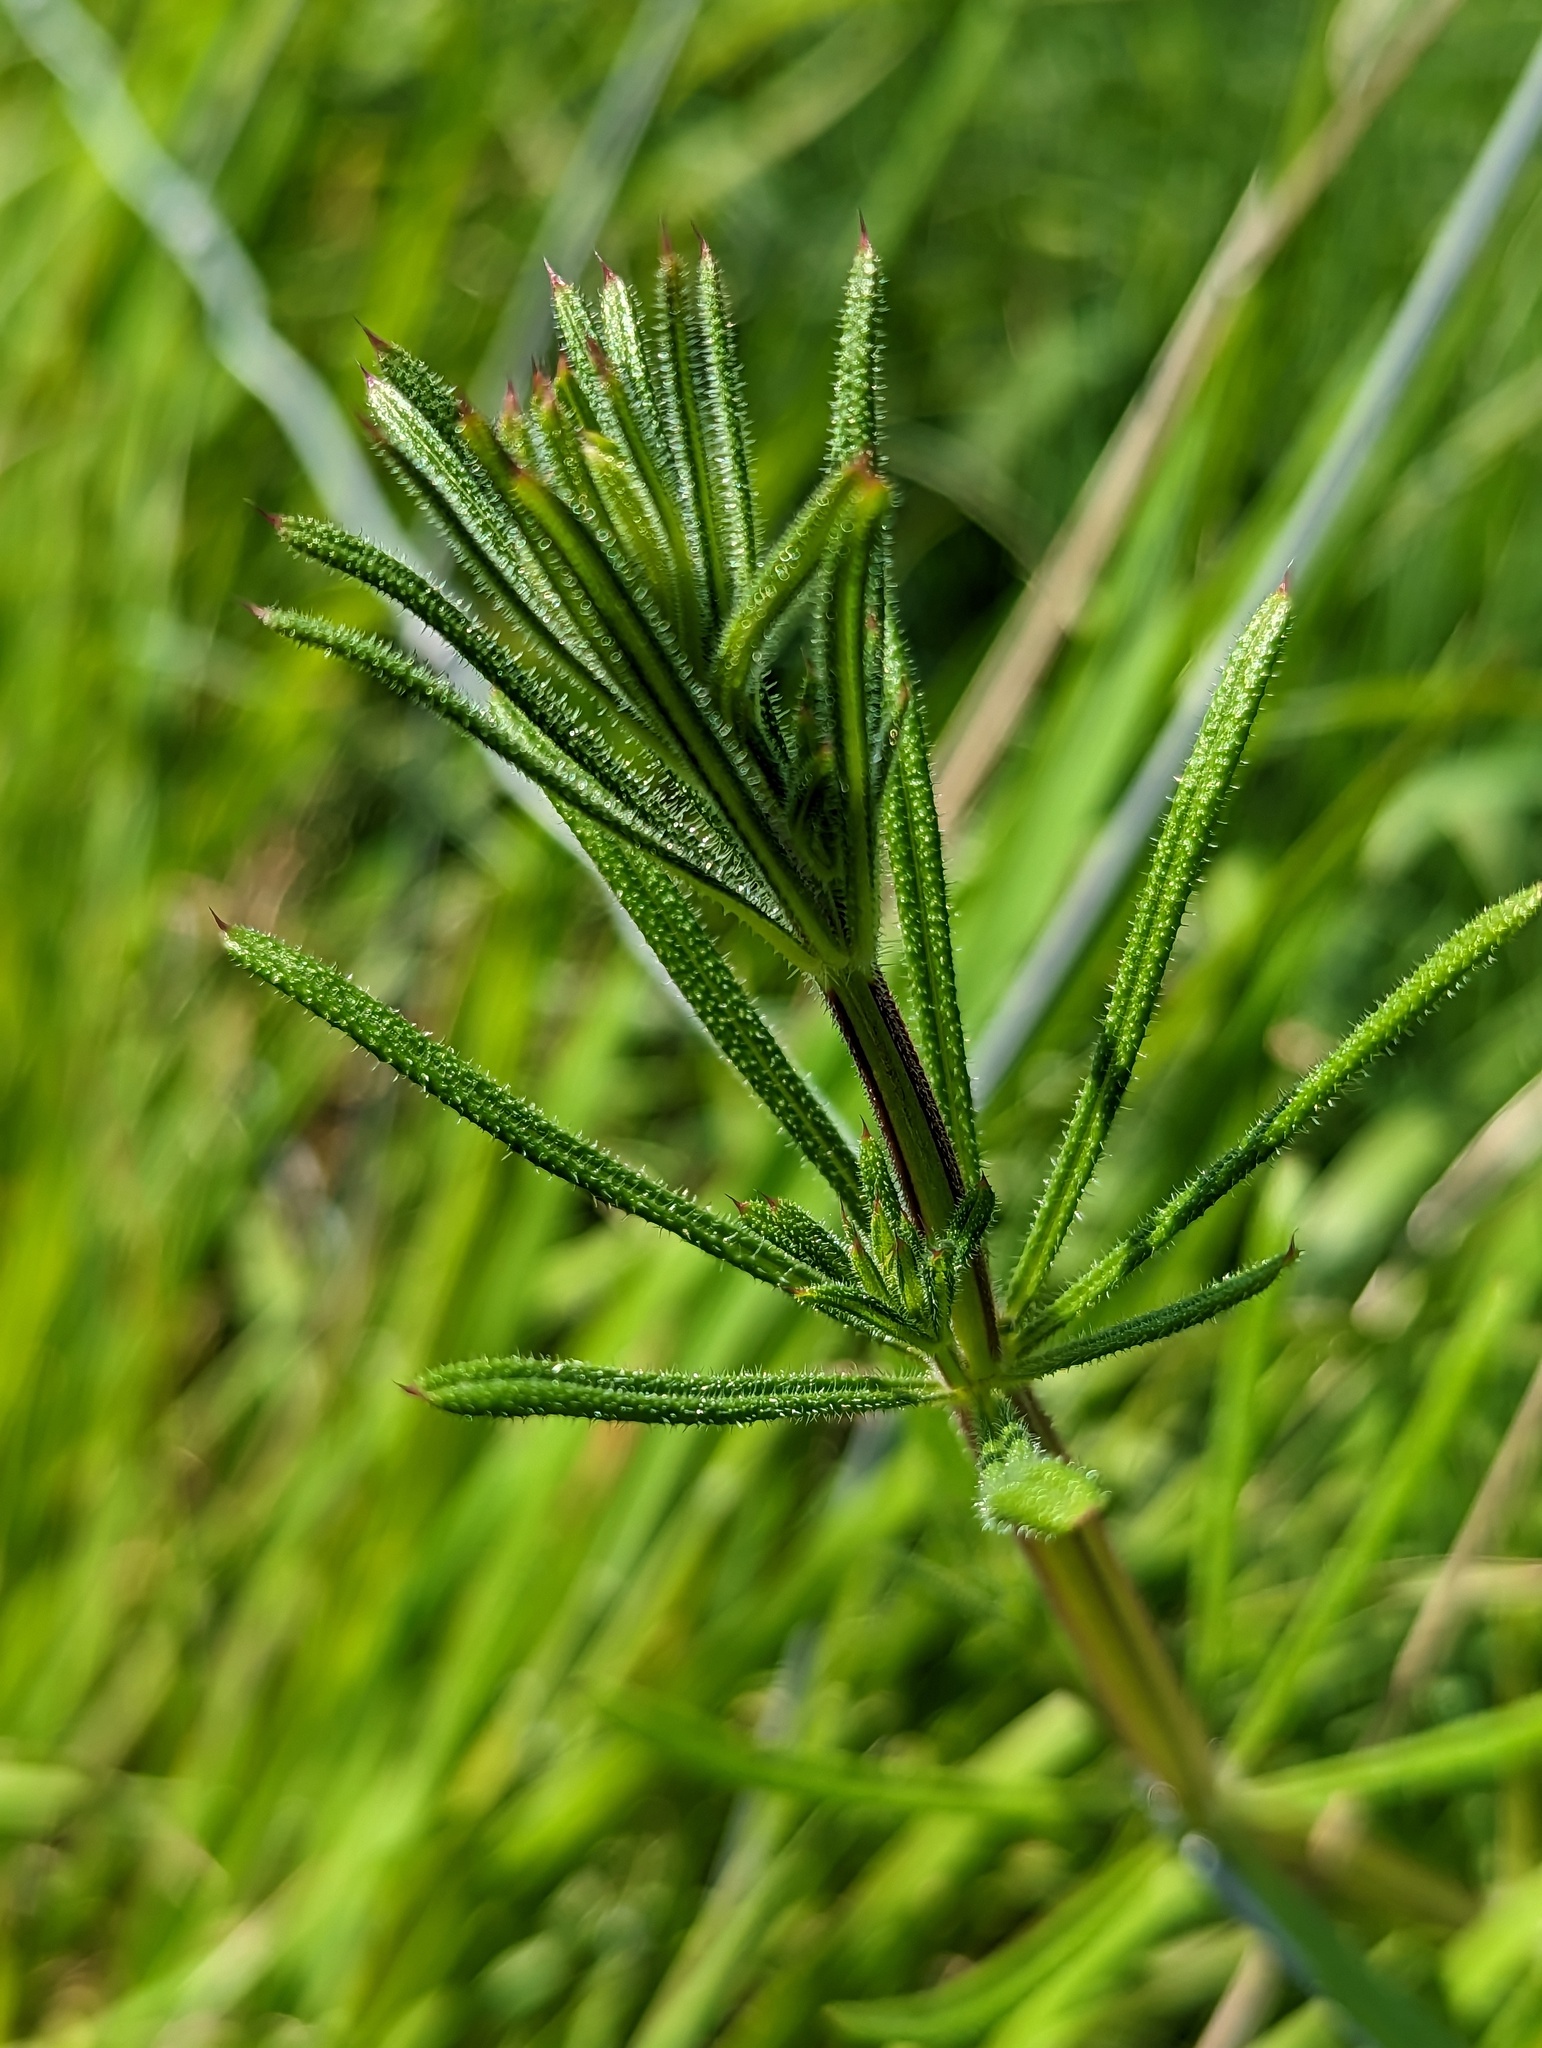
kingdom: Plantae
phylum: Tracheophyta
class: Magnoliopsida
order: Gentianales
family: Rubiaceae
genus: Galium
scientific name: Galium aparine
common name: Cleavers
